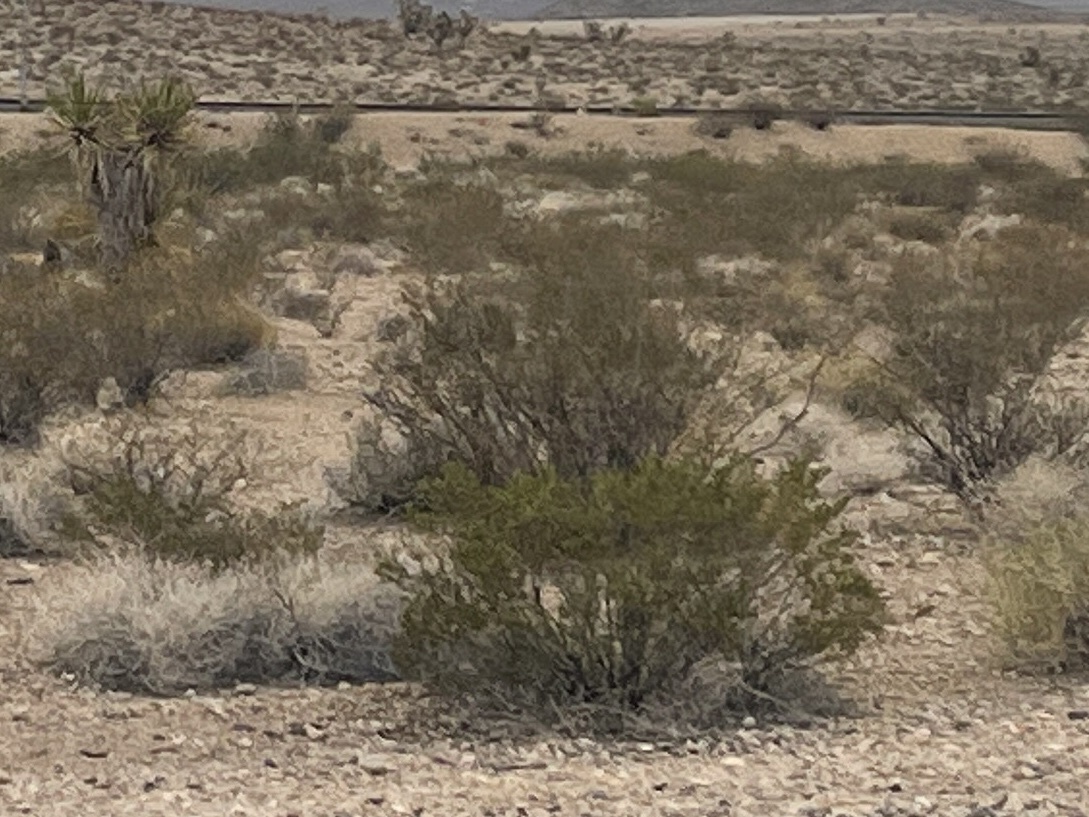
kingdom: Plantae
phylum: Tracheophyta
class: Magnoliopsida
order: Zygophyllales
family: Zygophyllaceae
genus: Larrea
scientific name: Larrea tridentata
